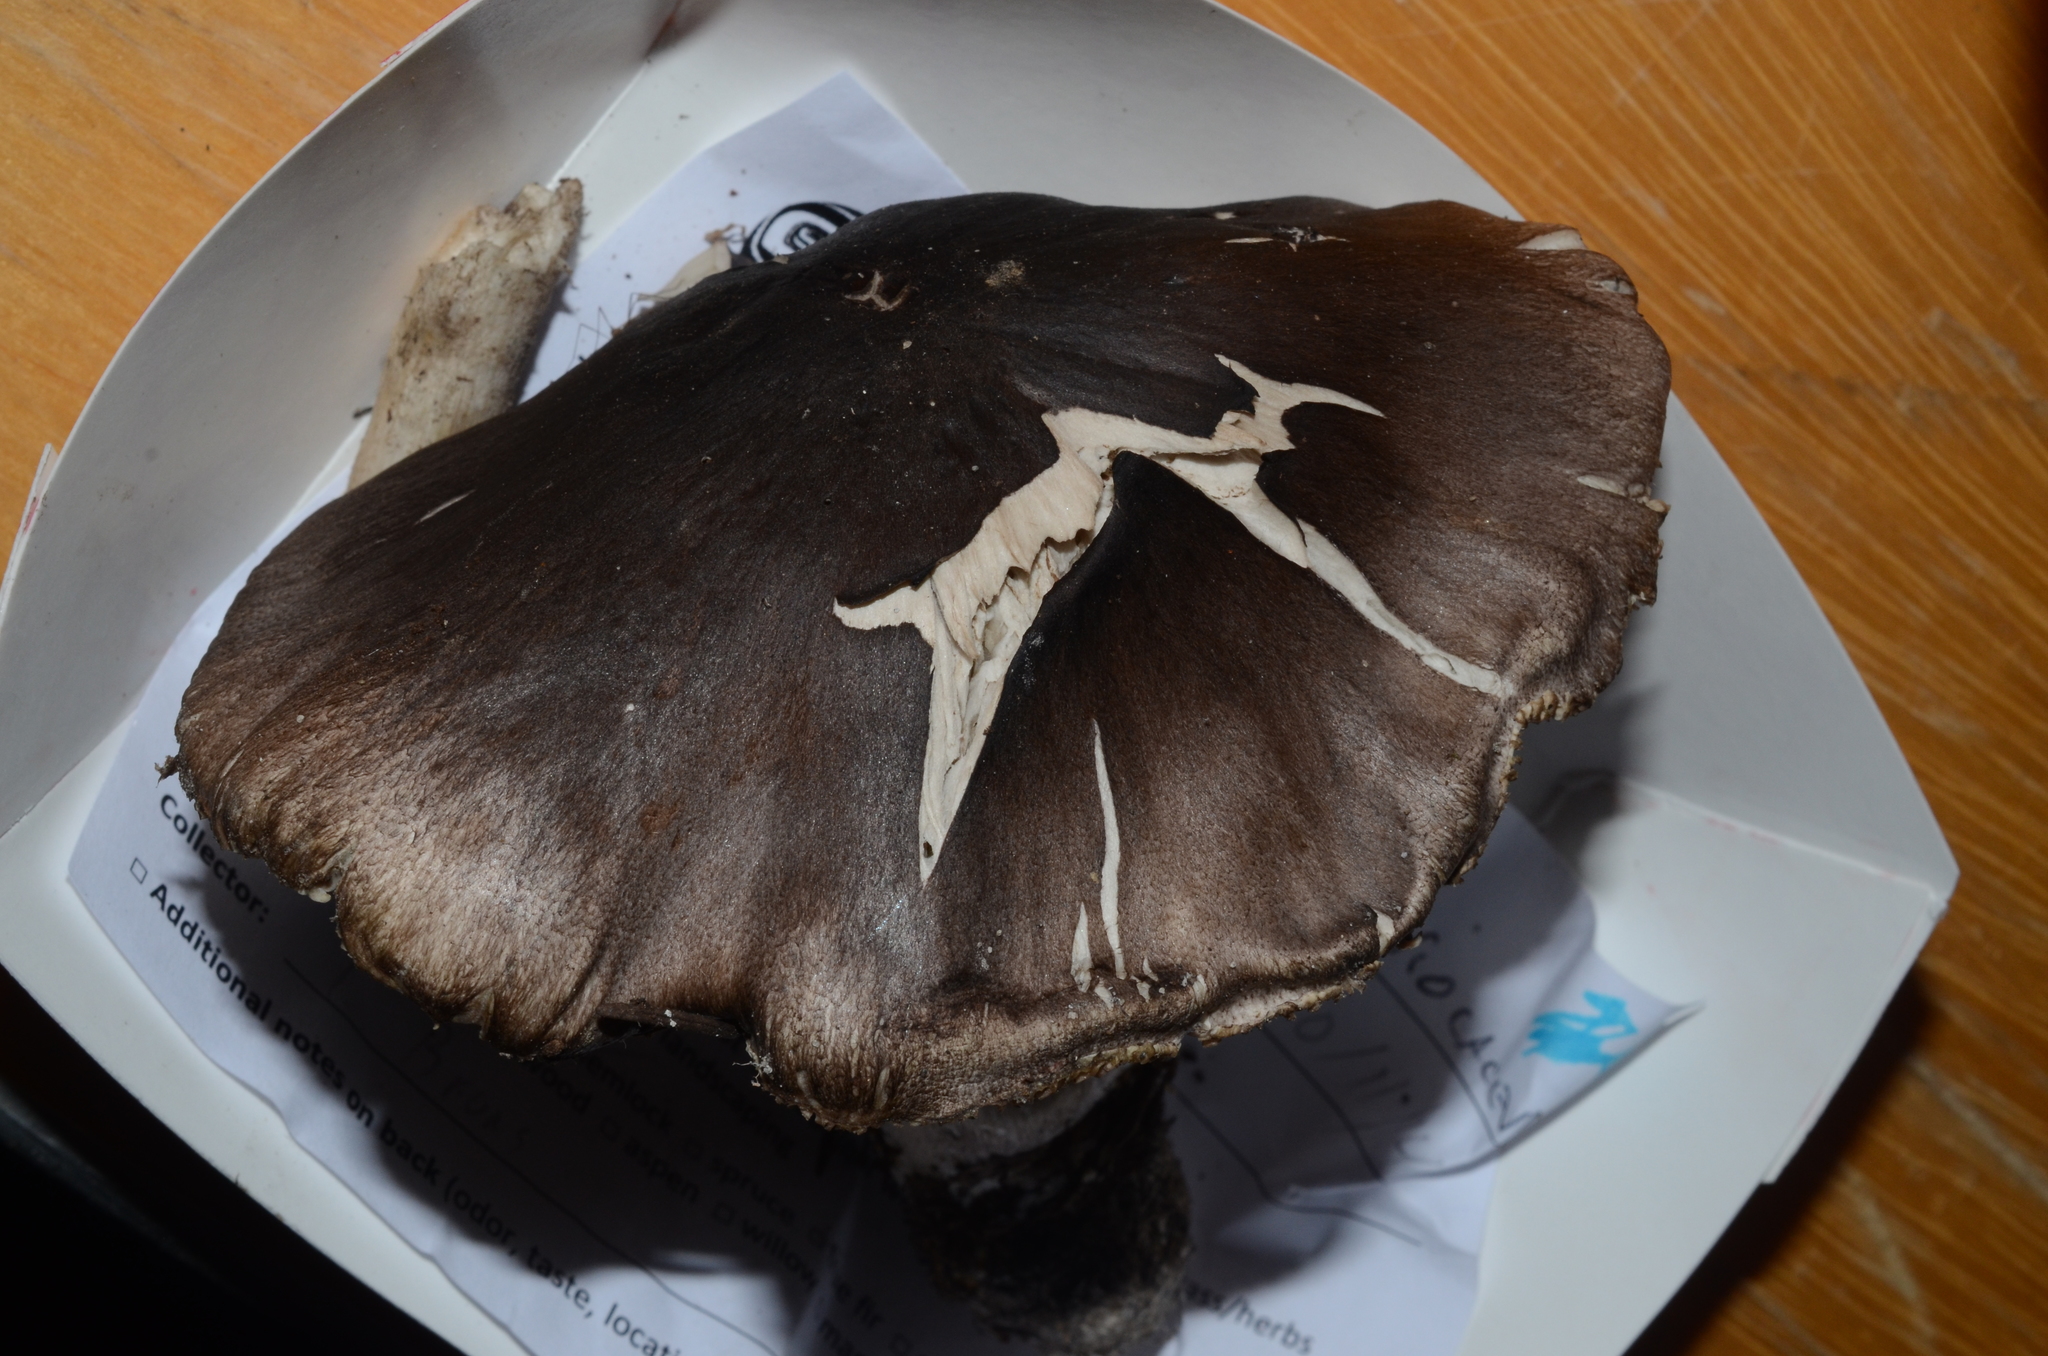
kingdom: Fungi
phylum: Basidiomycota
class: Agaricomycetes
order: Agaricales
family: Tricholomataceae
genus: Tricholoma
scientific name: Tricholoma atroviolaceum
